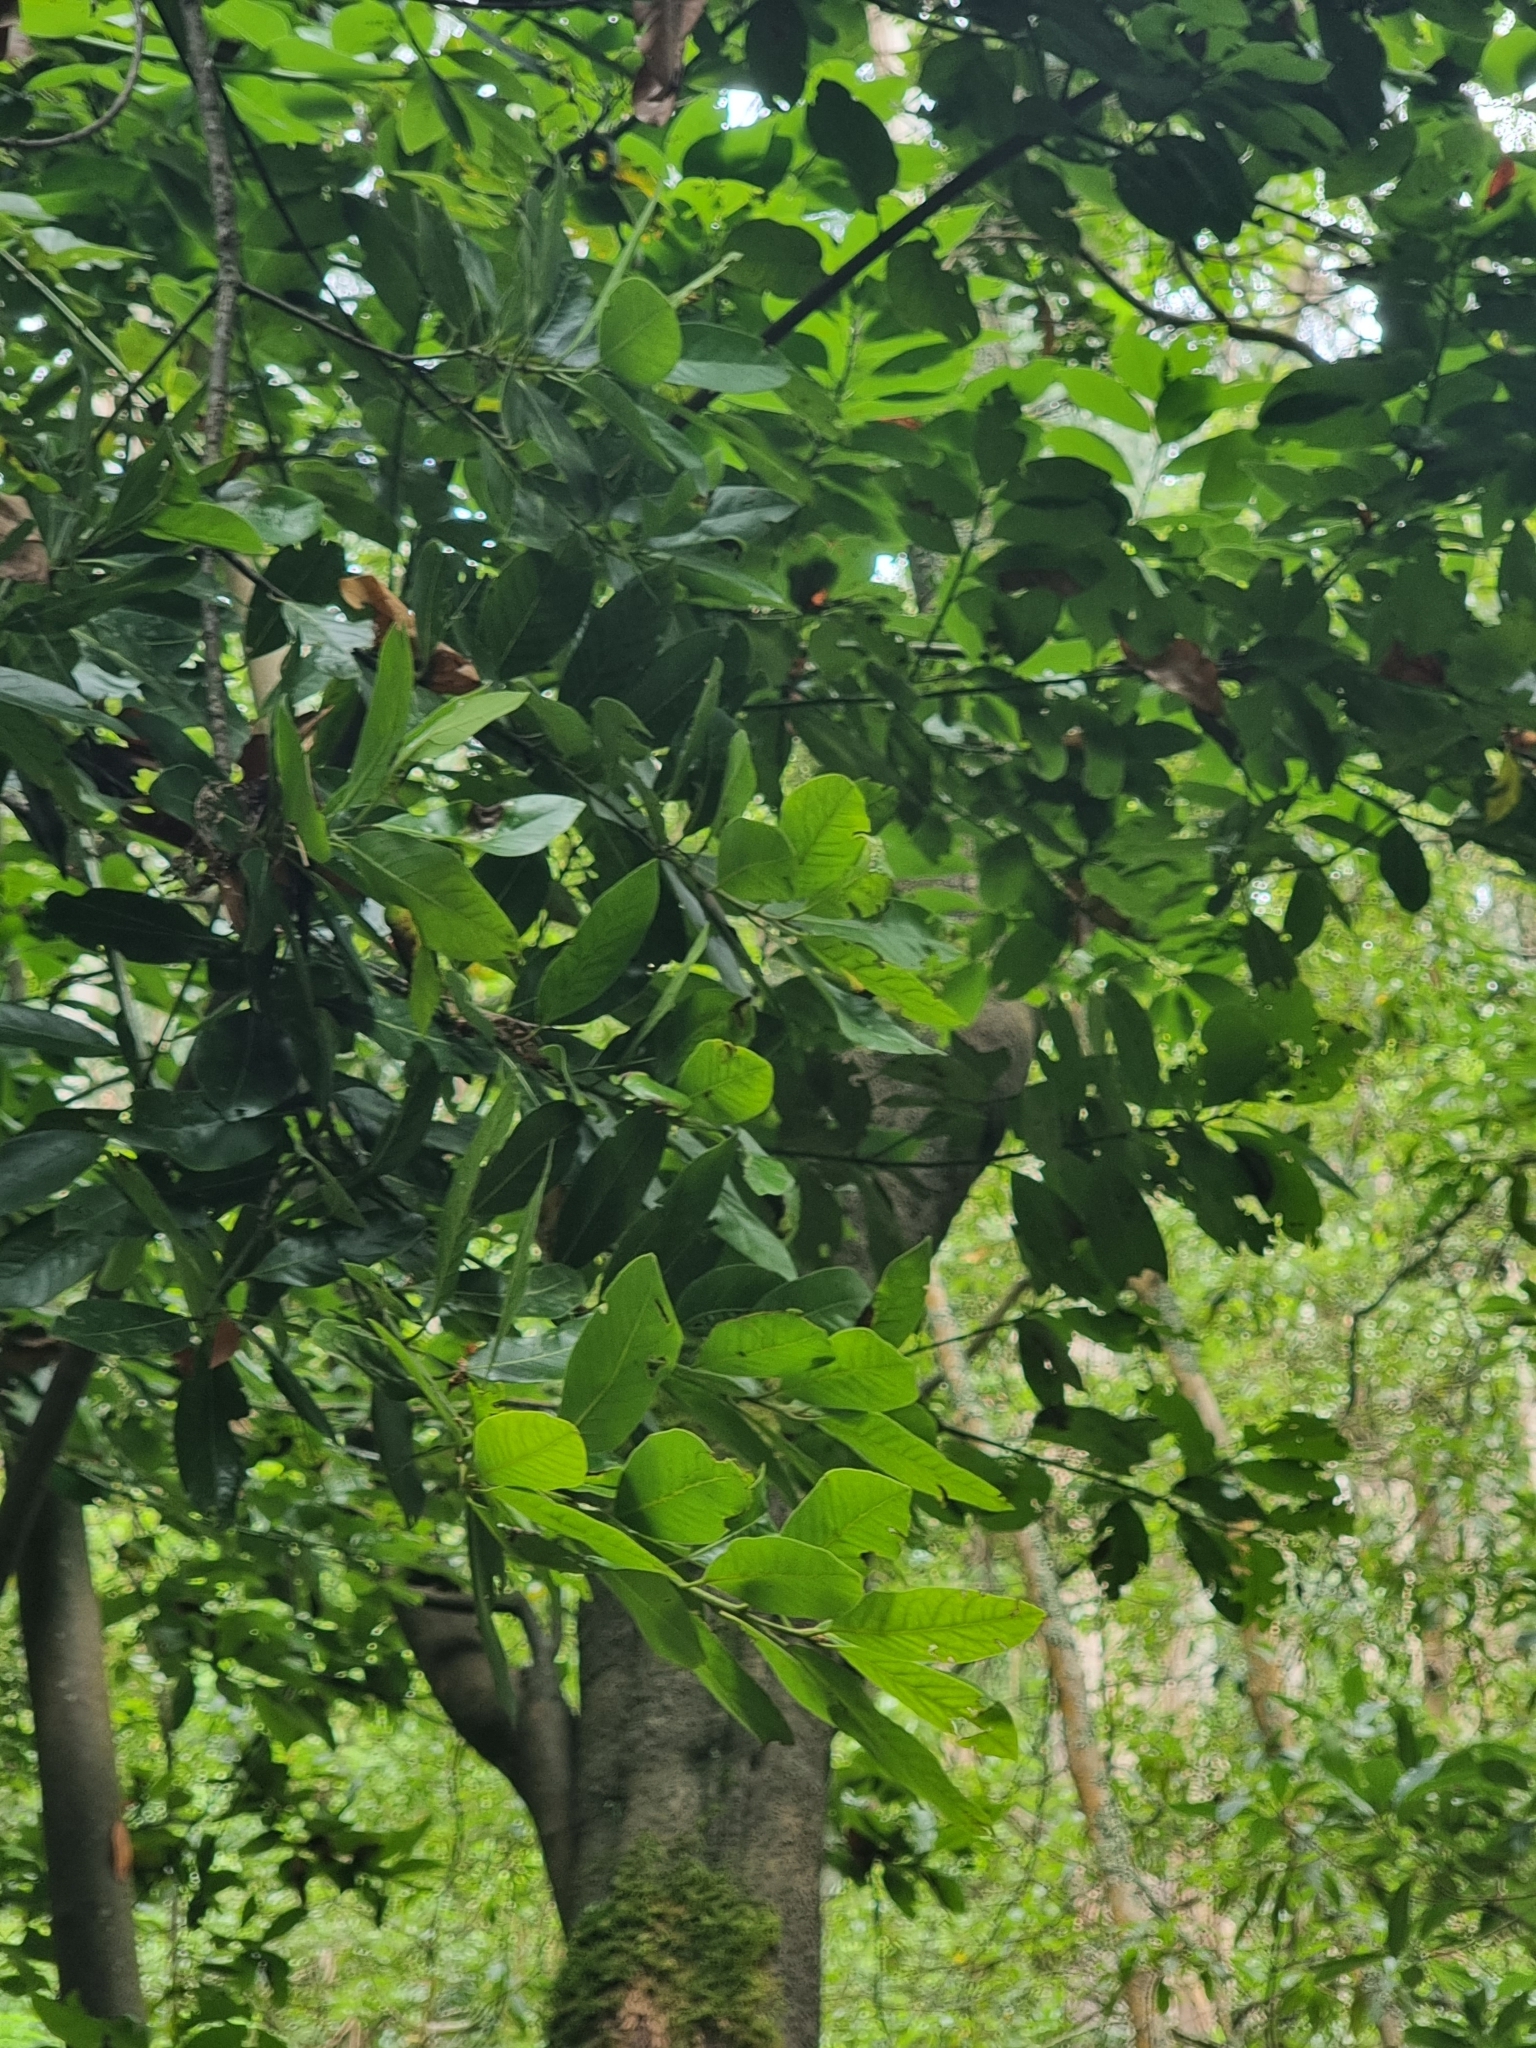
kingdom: Plantae
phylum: Tracheophyta
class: Magnoliopsida
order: Laurales
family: Lauraceae
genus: Laurus
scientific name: Laurus novocanariensis
